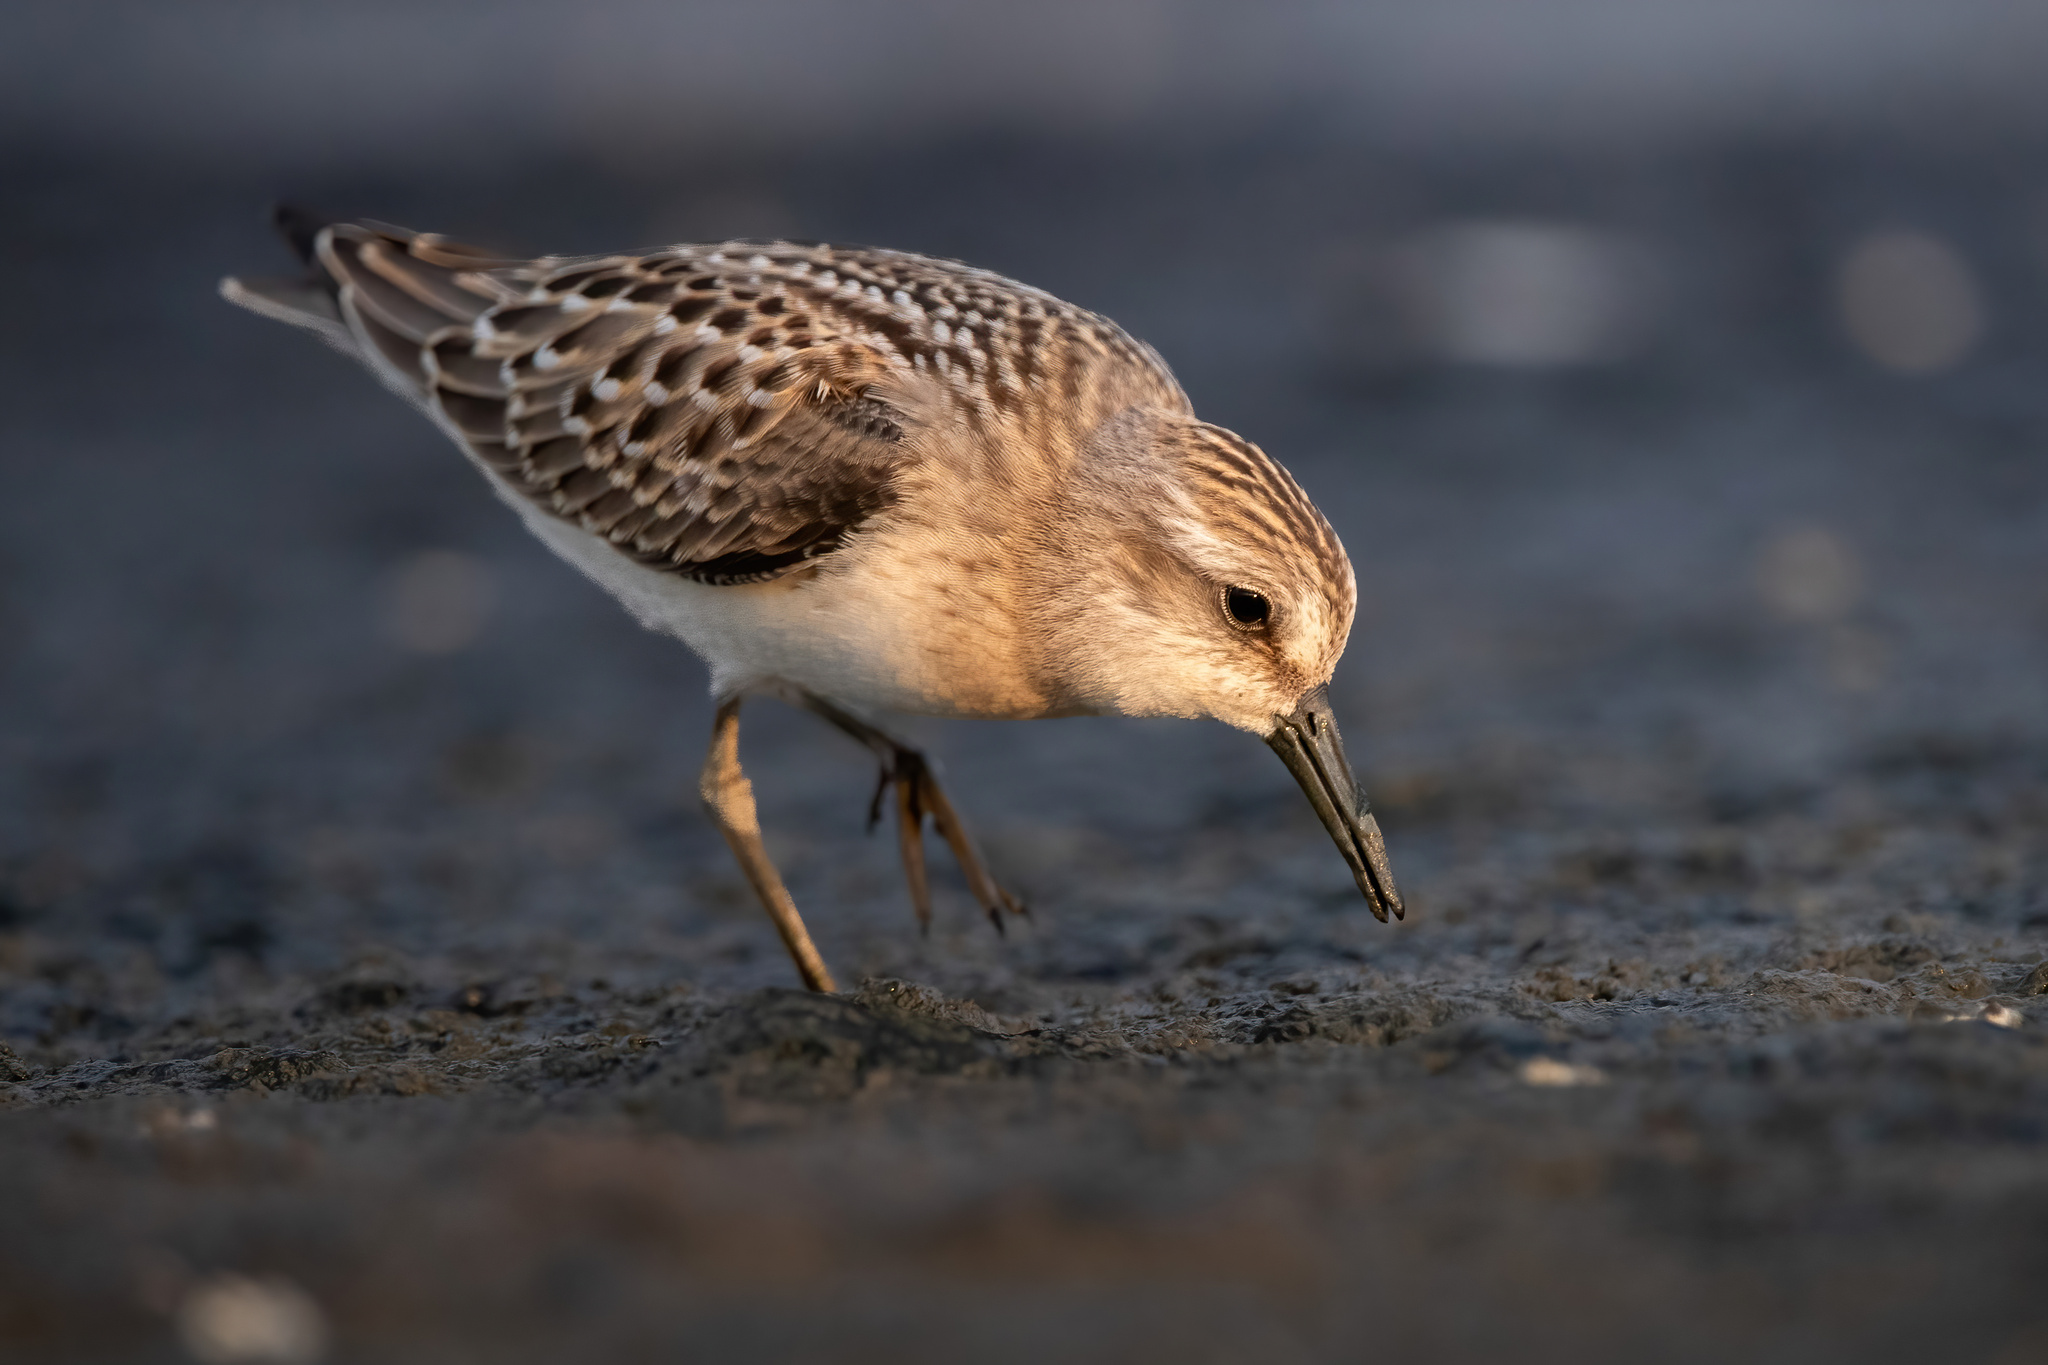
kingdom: Animalia
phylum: Chordata
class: Aves
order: Charadriiformes
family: Scolopacidae
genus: Calidris
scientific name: Calidris pusilla
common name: Semipalmated sandpiper
